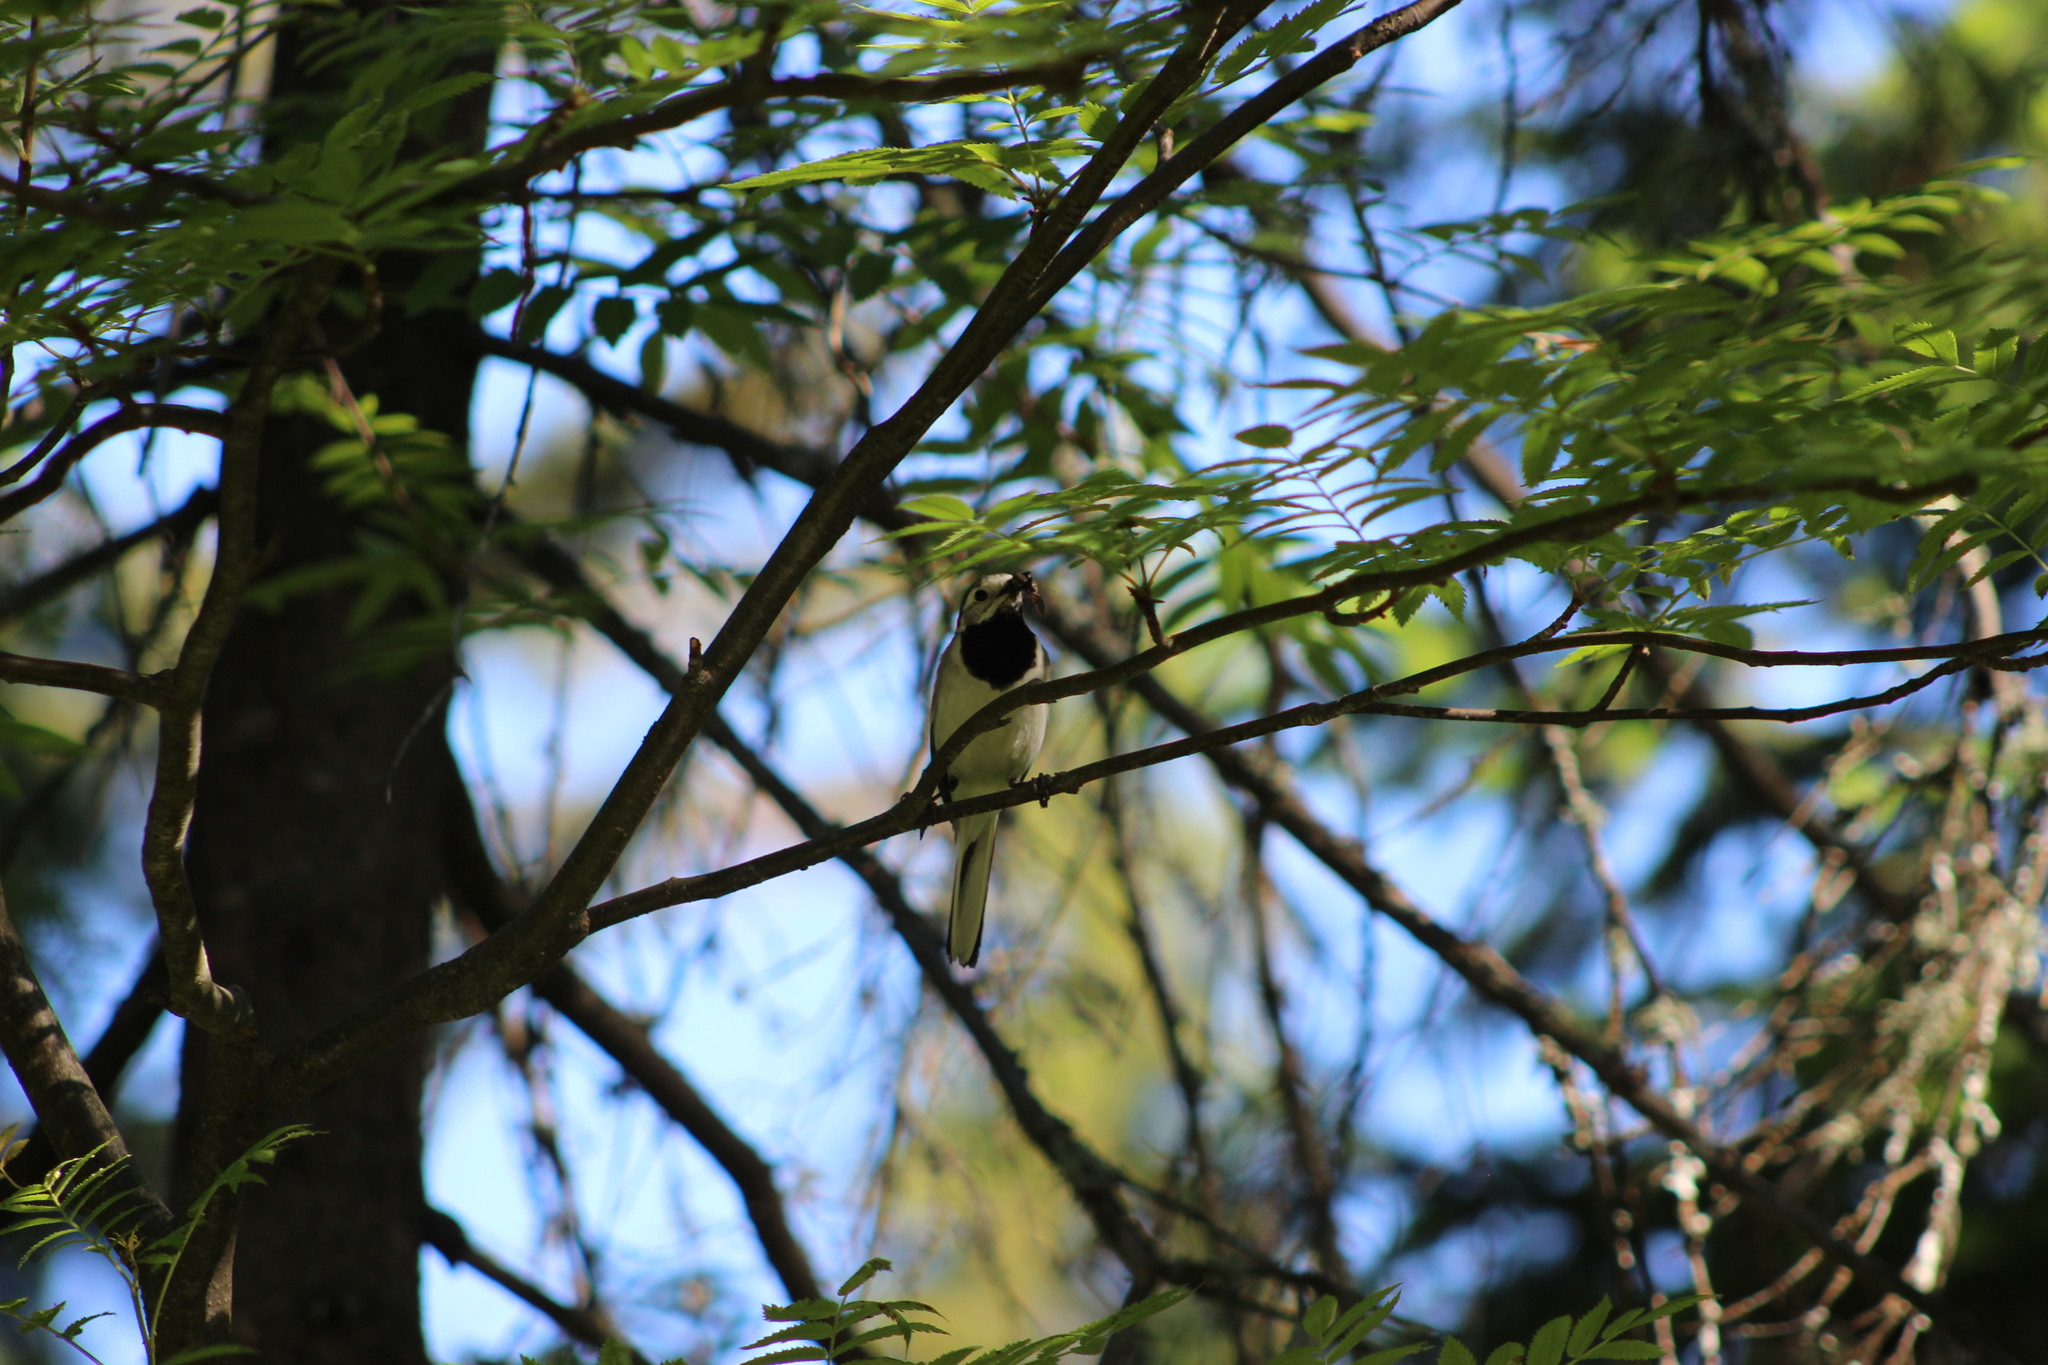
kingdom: Animalia
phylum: Chordata
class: Aves
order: Passeriformes
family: Motacillidae
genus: Motacilla
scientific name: Motacilla alba
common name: White wagtail
